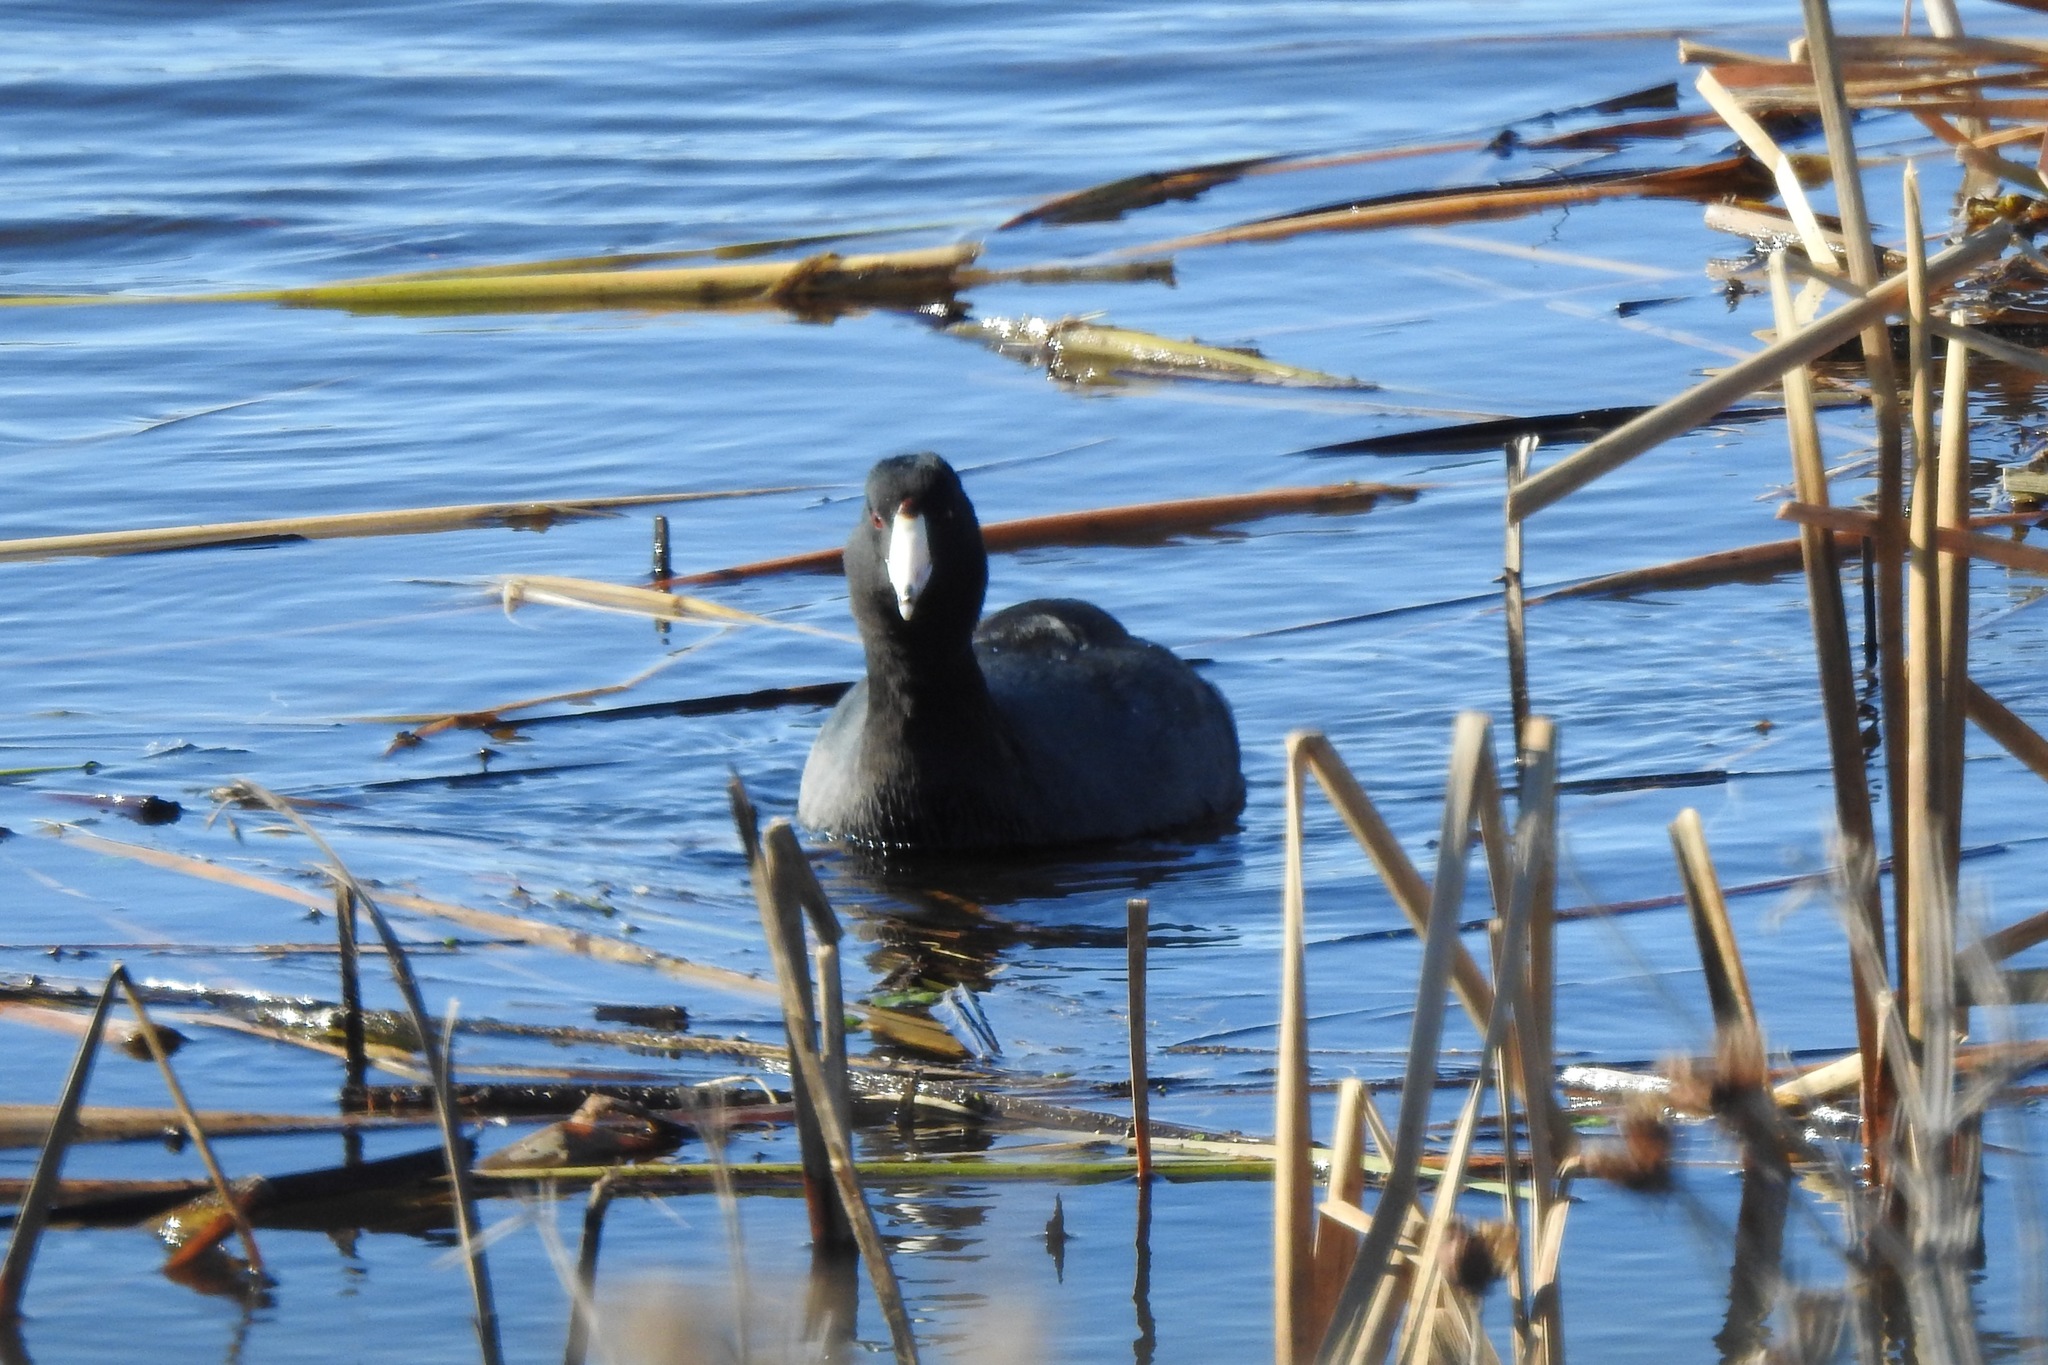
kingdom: Animalia
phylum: Chordata
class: Aves
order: Gruiformes
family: Rallidae
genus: Fulica
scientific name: Fulica americana
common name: American coot
